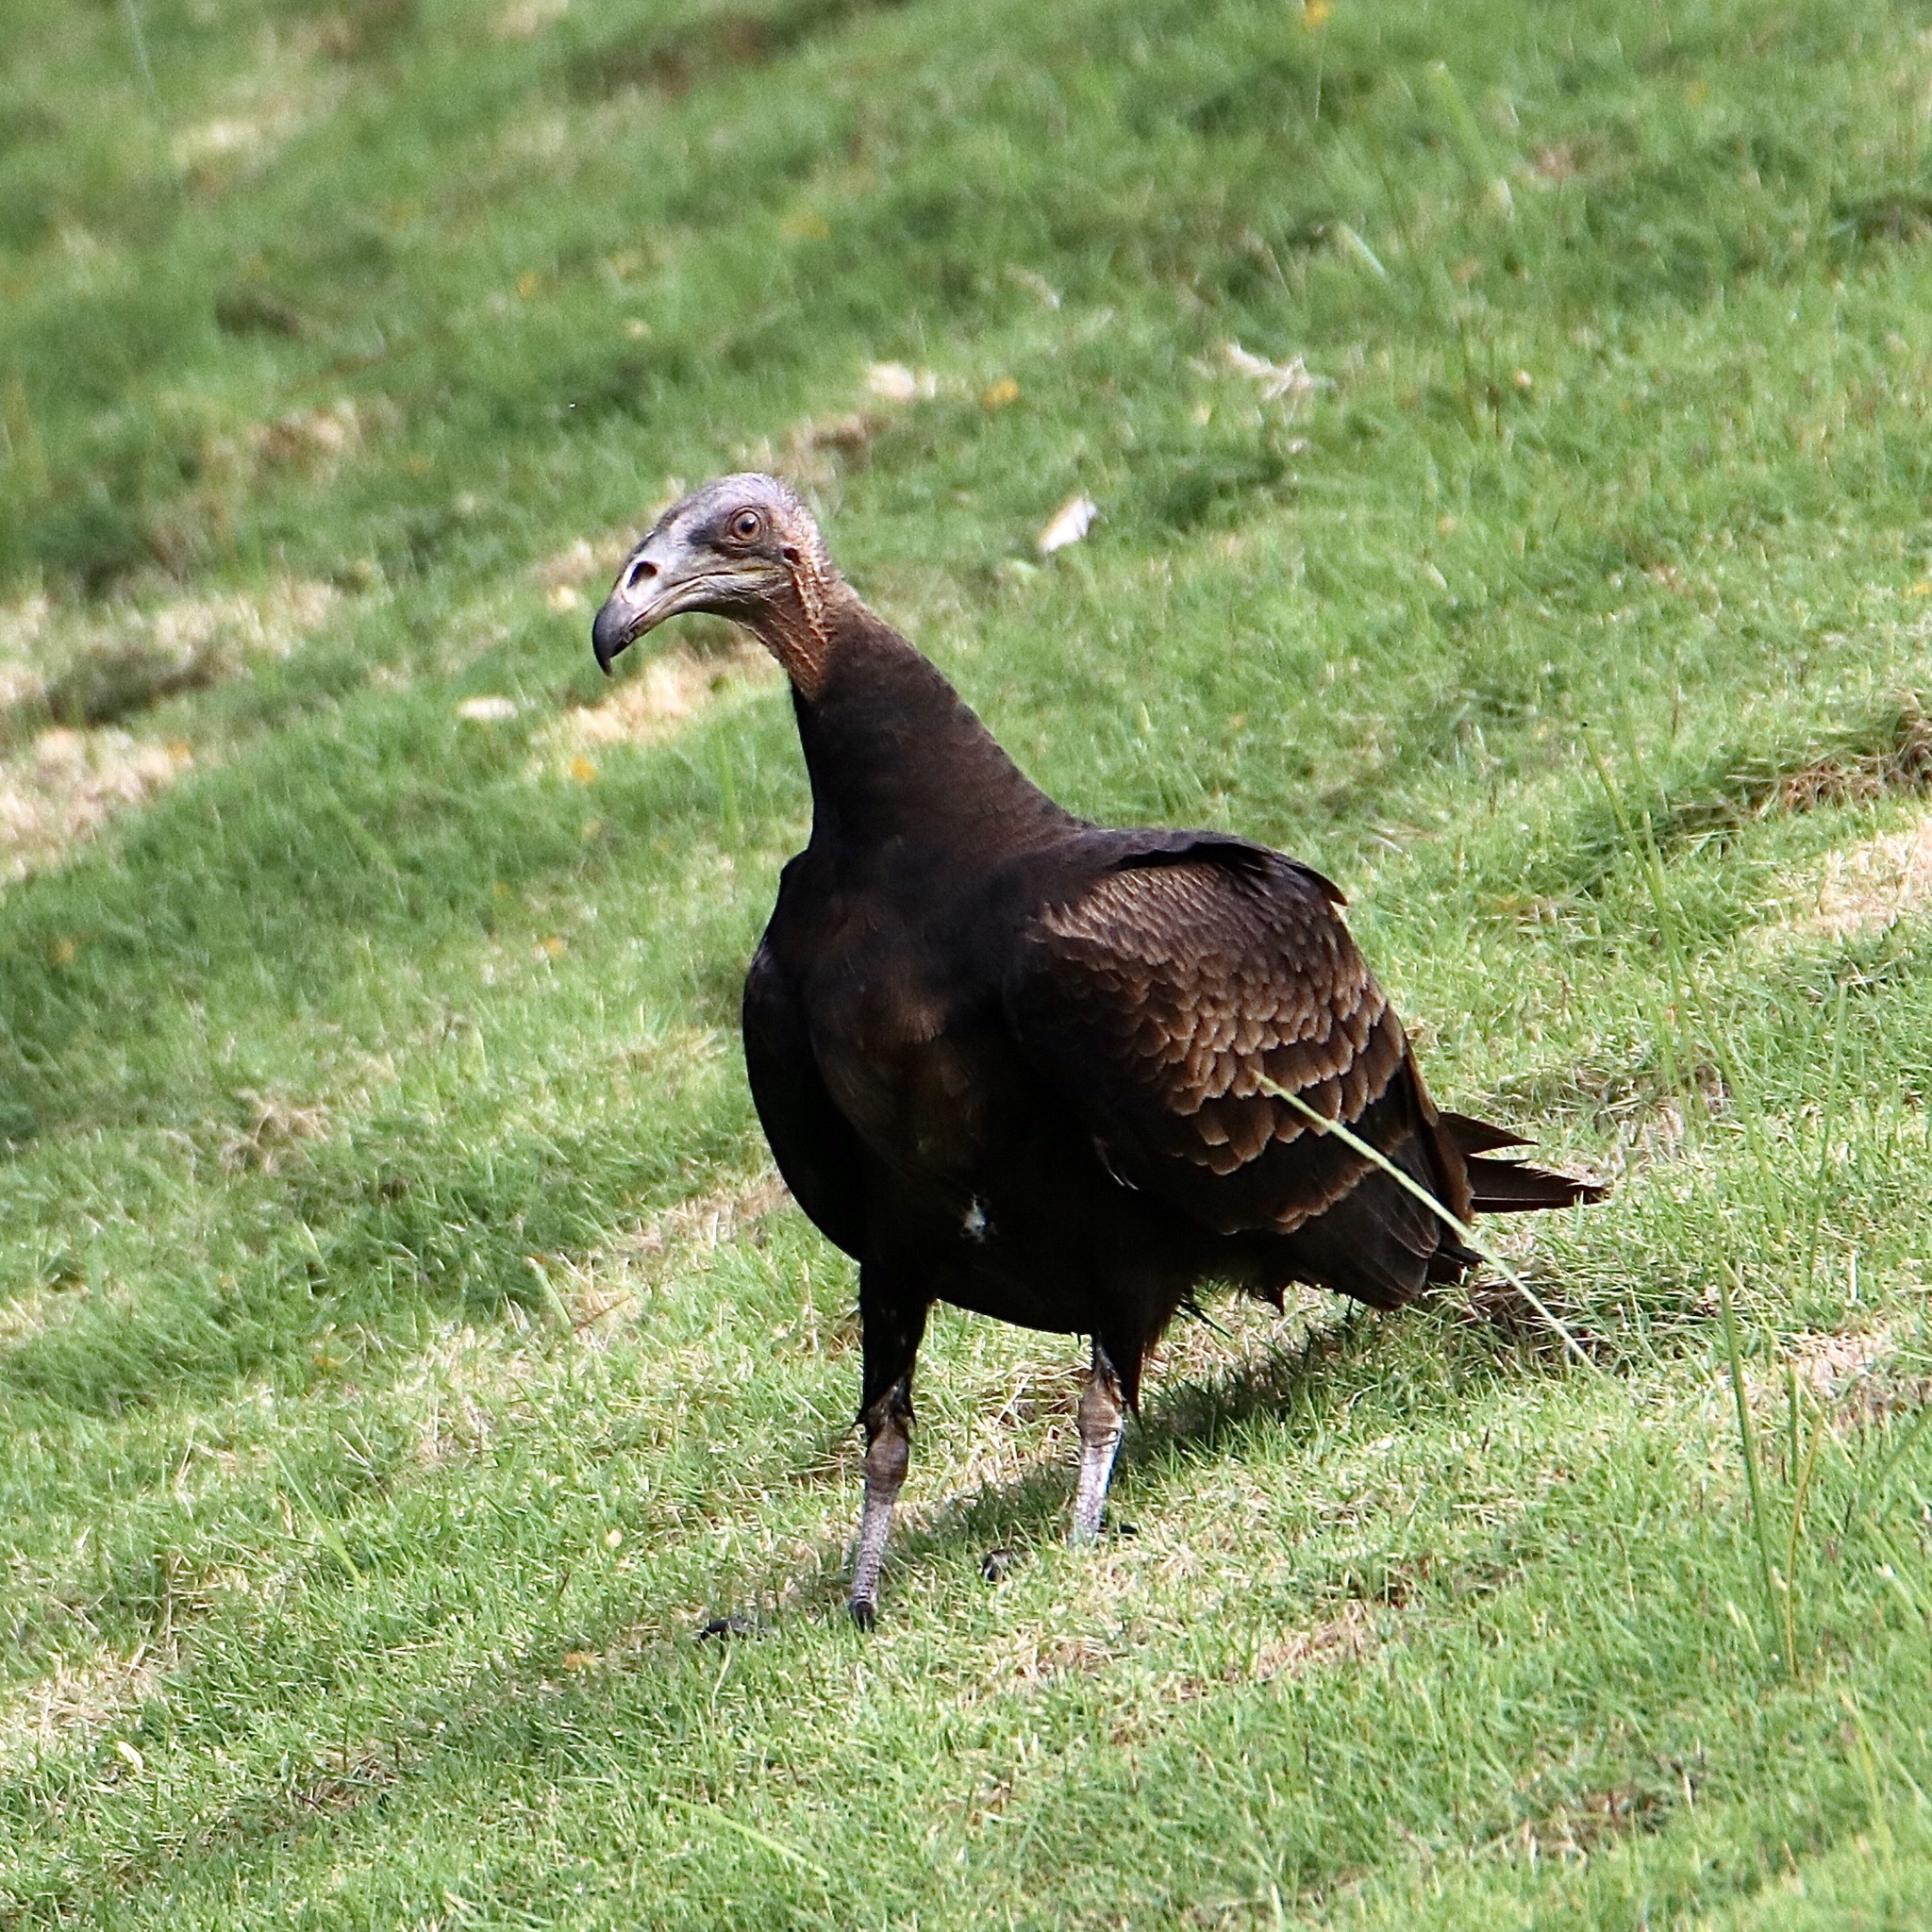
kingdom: Animalia
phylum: Chordata
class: Aves
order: Accipitriformes
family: Cathartidae
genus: Cathartes
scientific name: Cathartes burrovianus
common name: Lesser yellow-headed vulture
